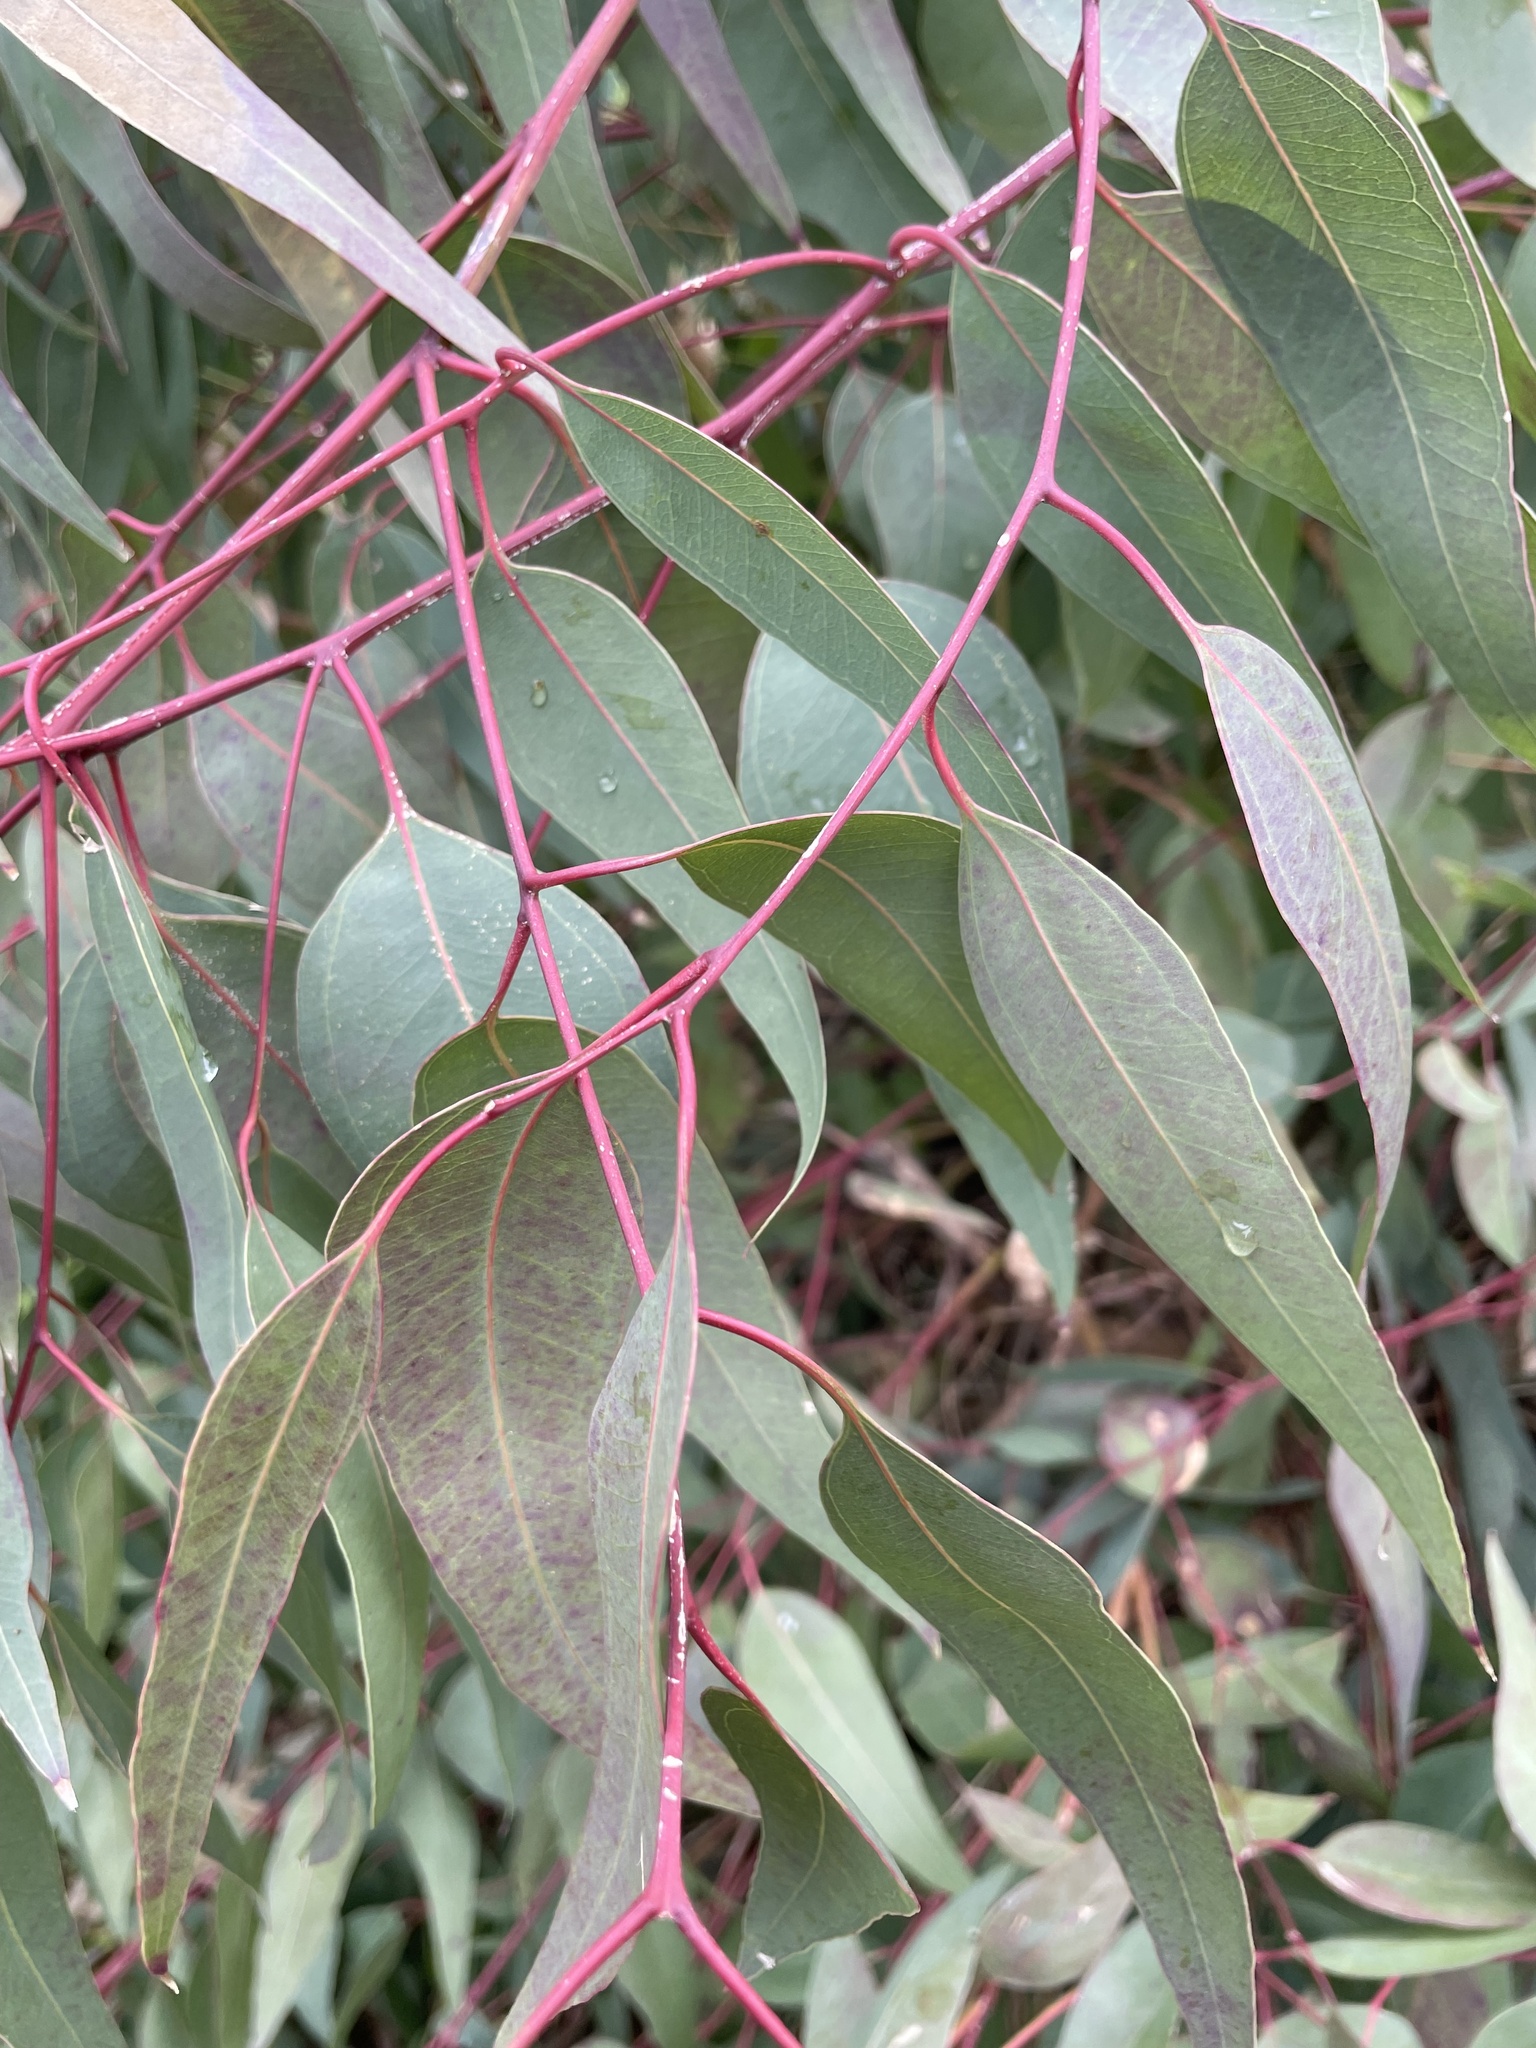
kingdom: Animalia
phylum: Arthropoda
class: Insecta
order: Hemiptera
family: Aphalaridae
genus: Glycaspis
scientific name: Glycaspis brimblecombei
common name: Red gum lerp psyllid
